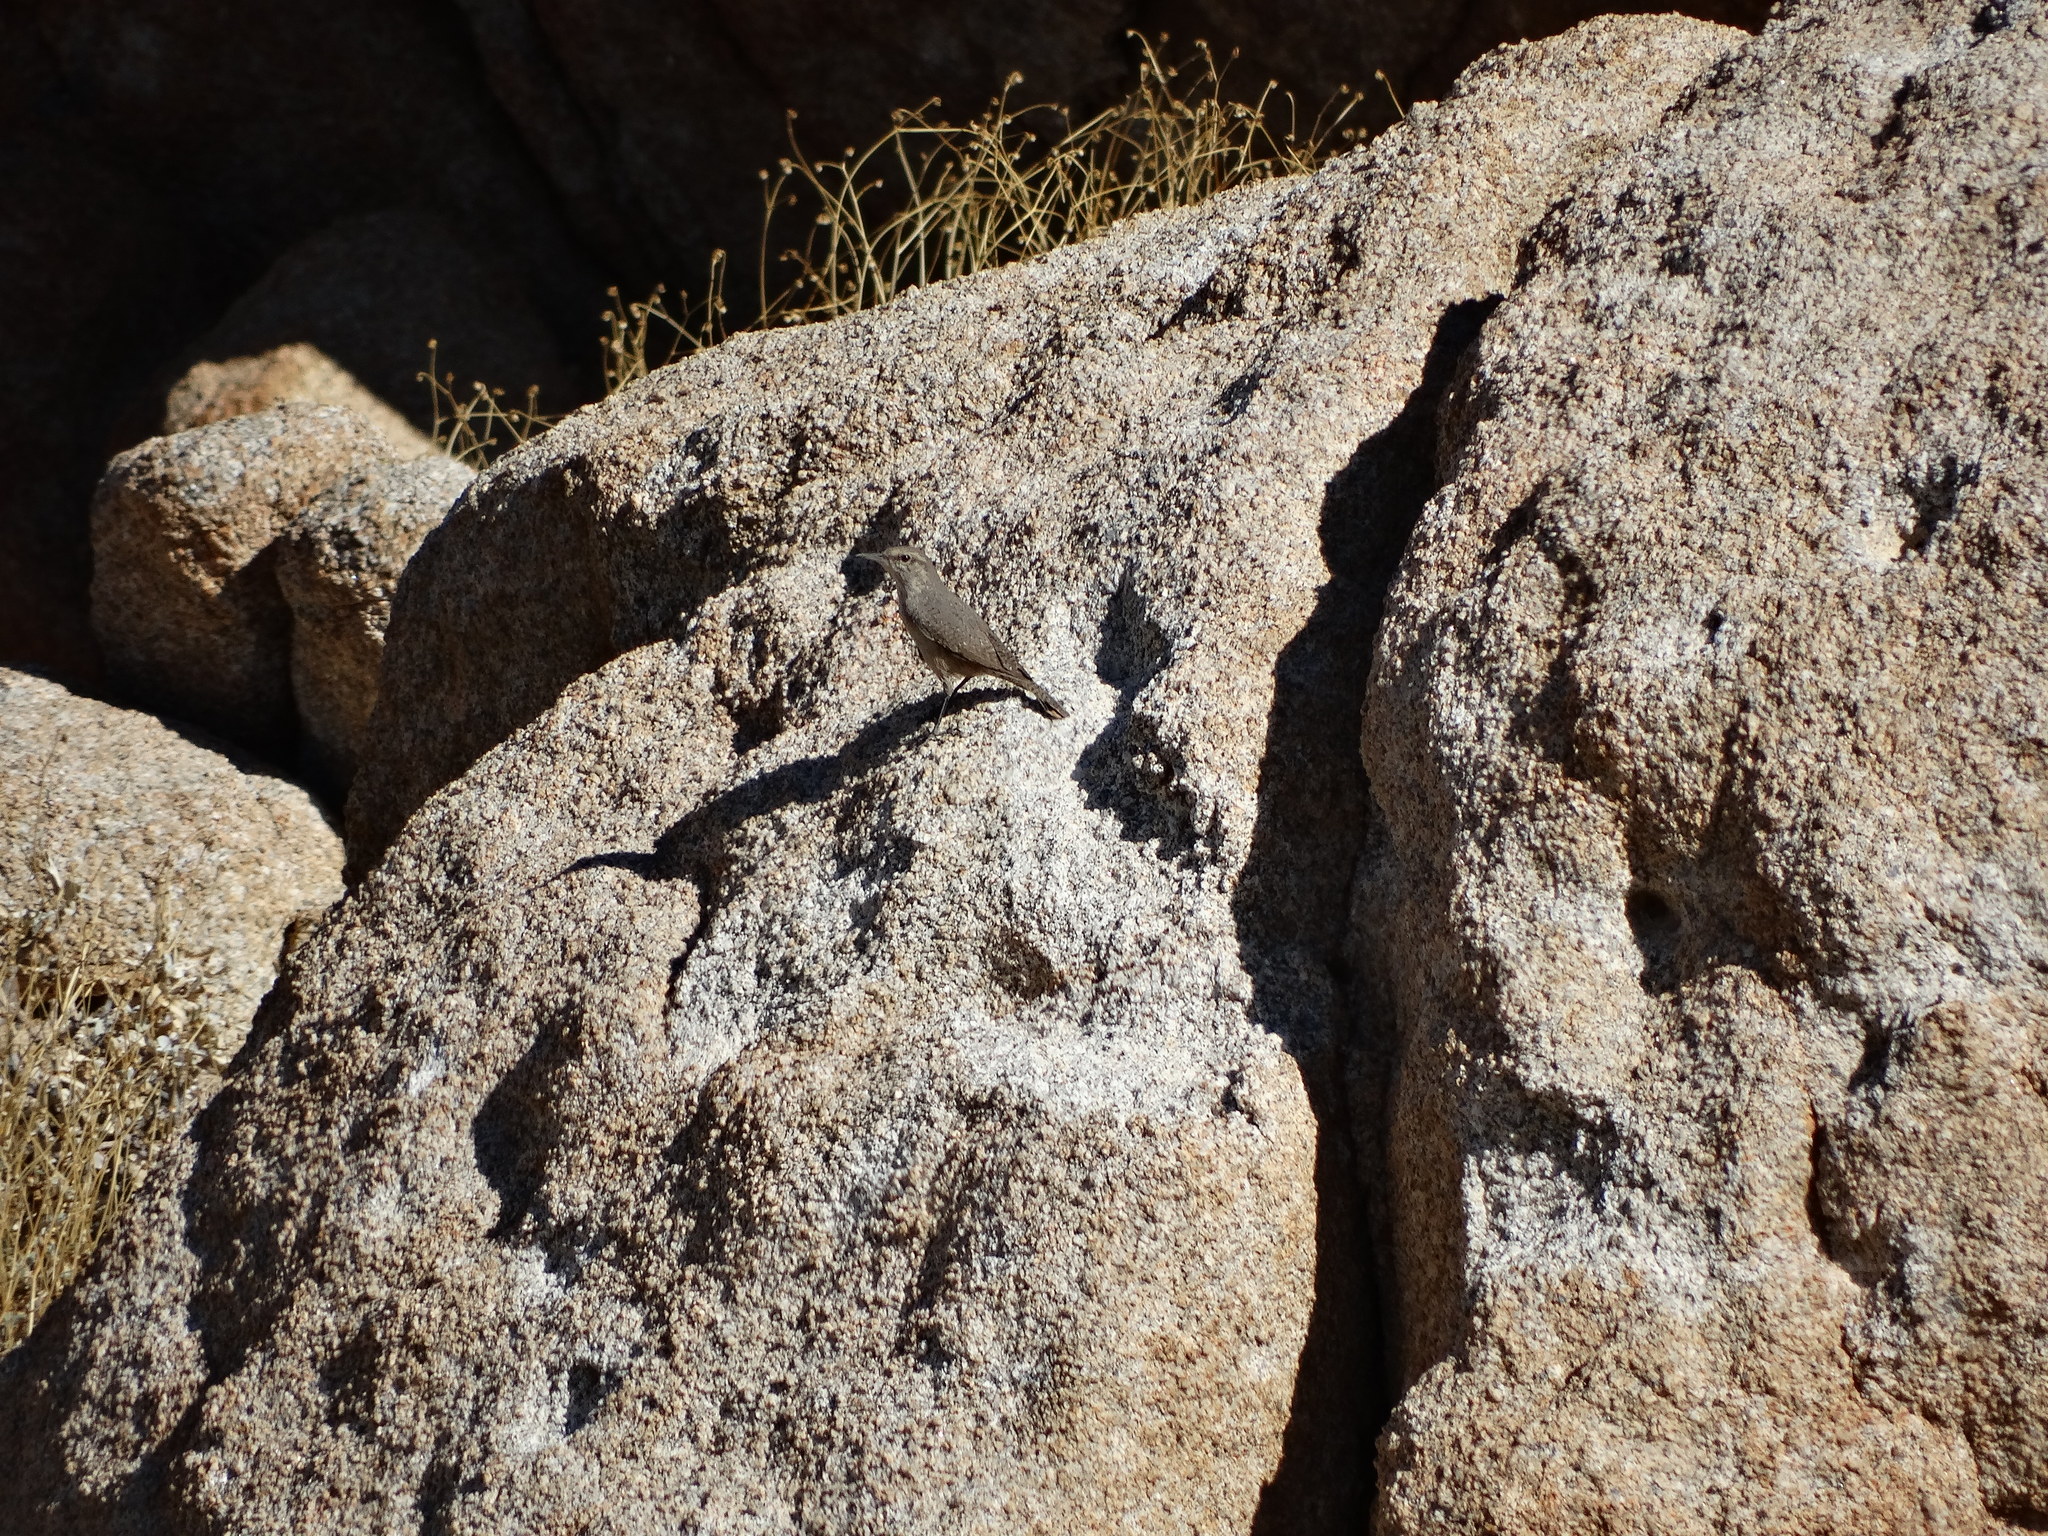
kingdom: Animalia
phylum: Chordata
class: Aves
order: Passeriformes
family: Troglodytidae
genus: Salpinctes
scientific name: Salpinctes obsoletus
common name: Rock wren
